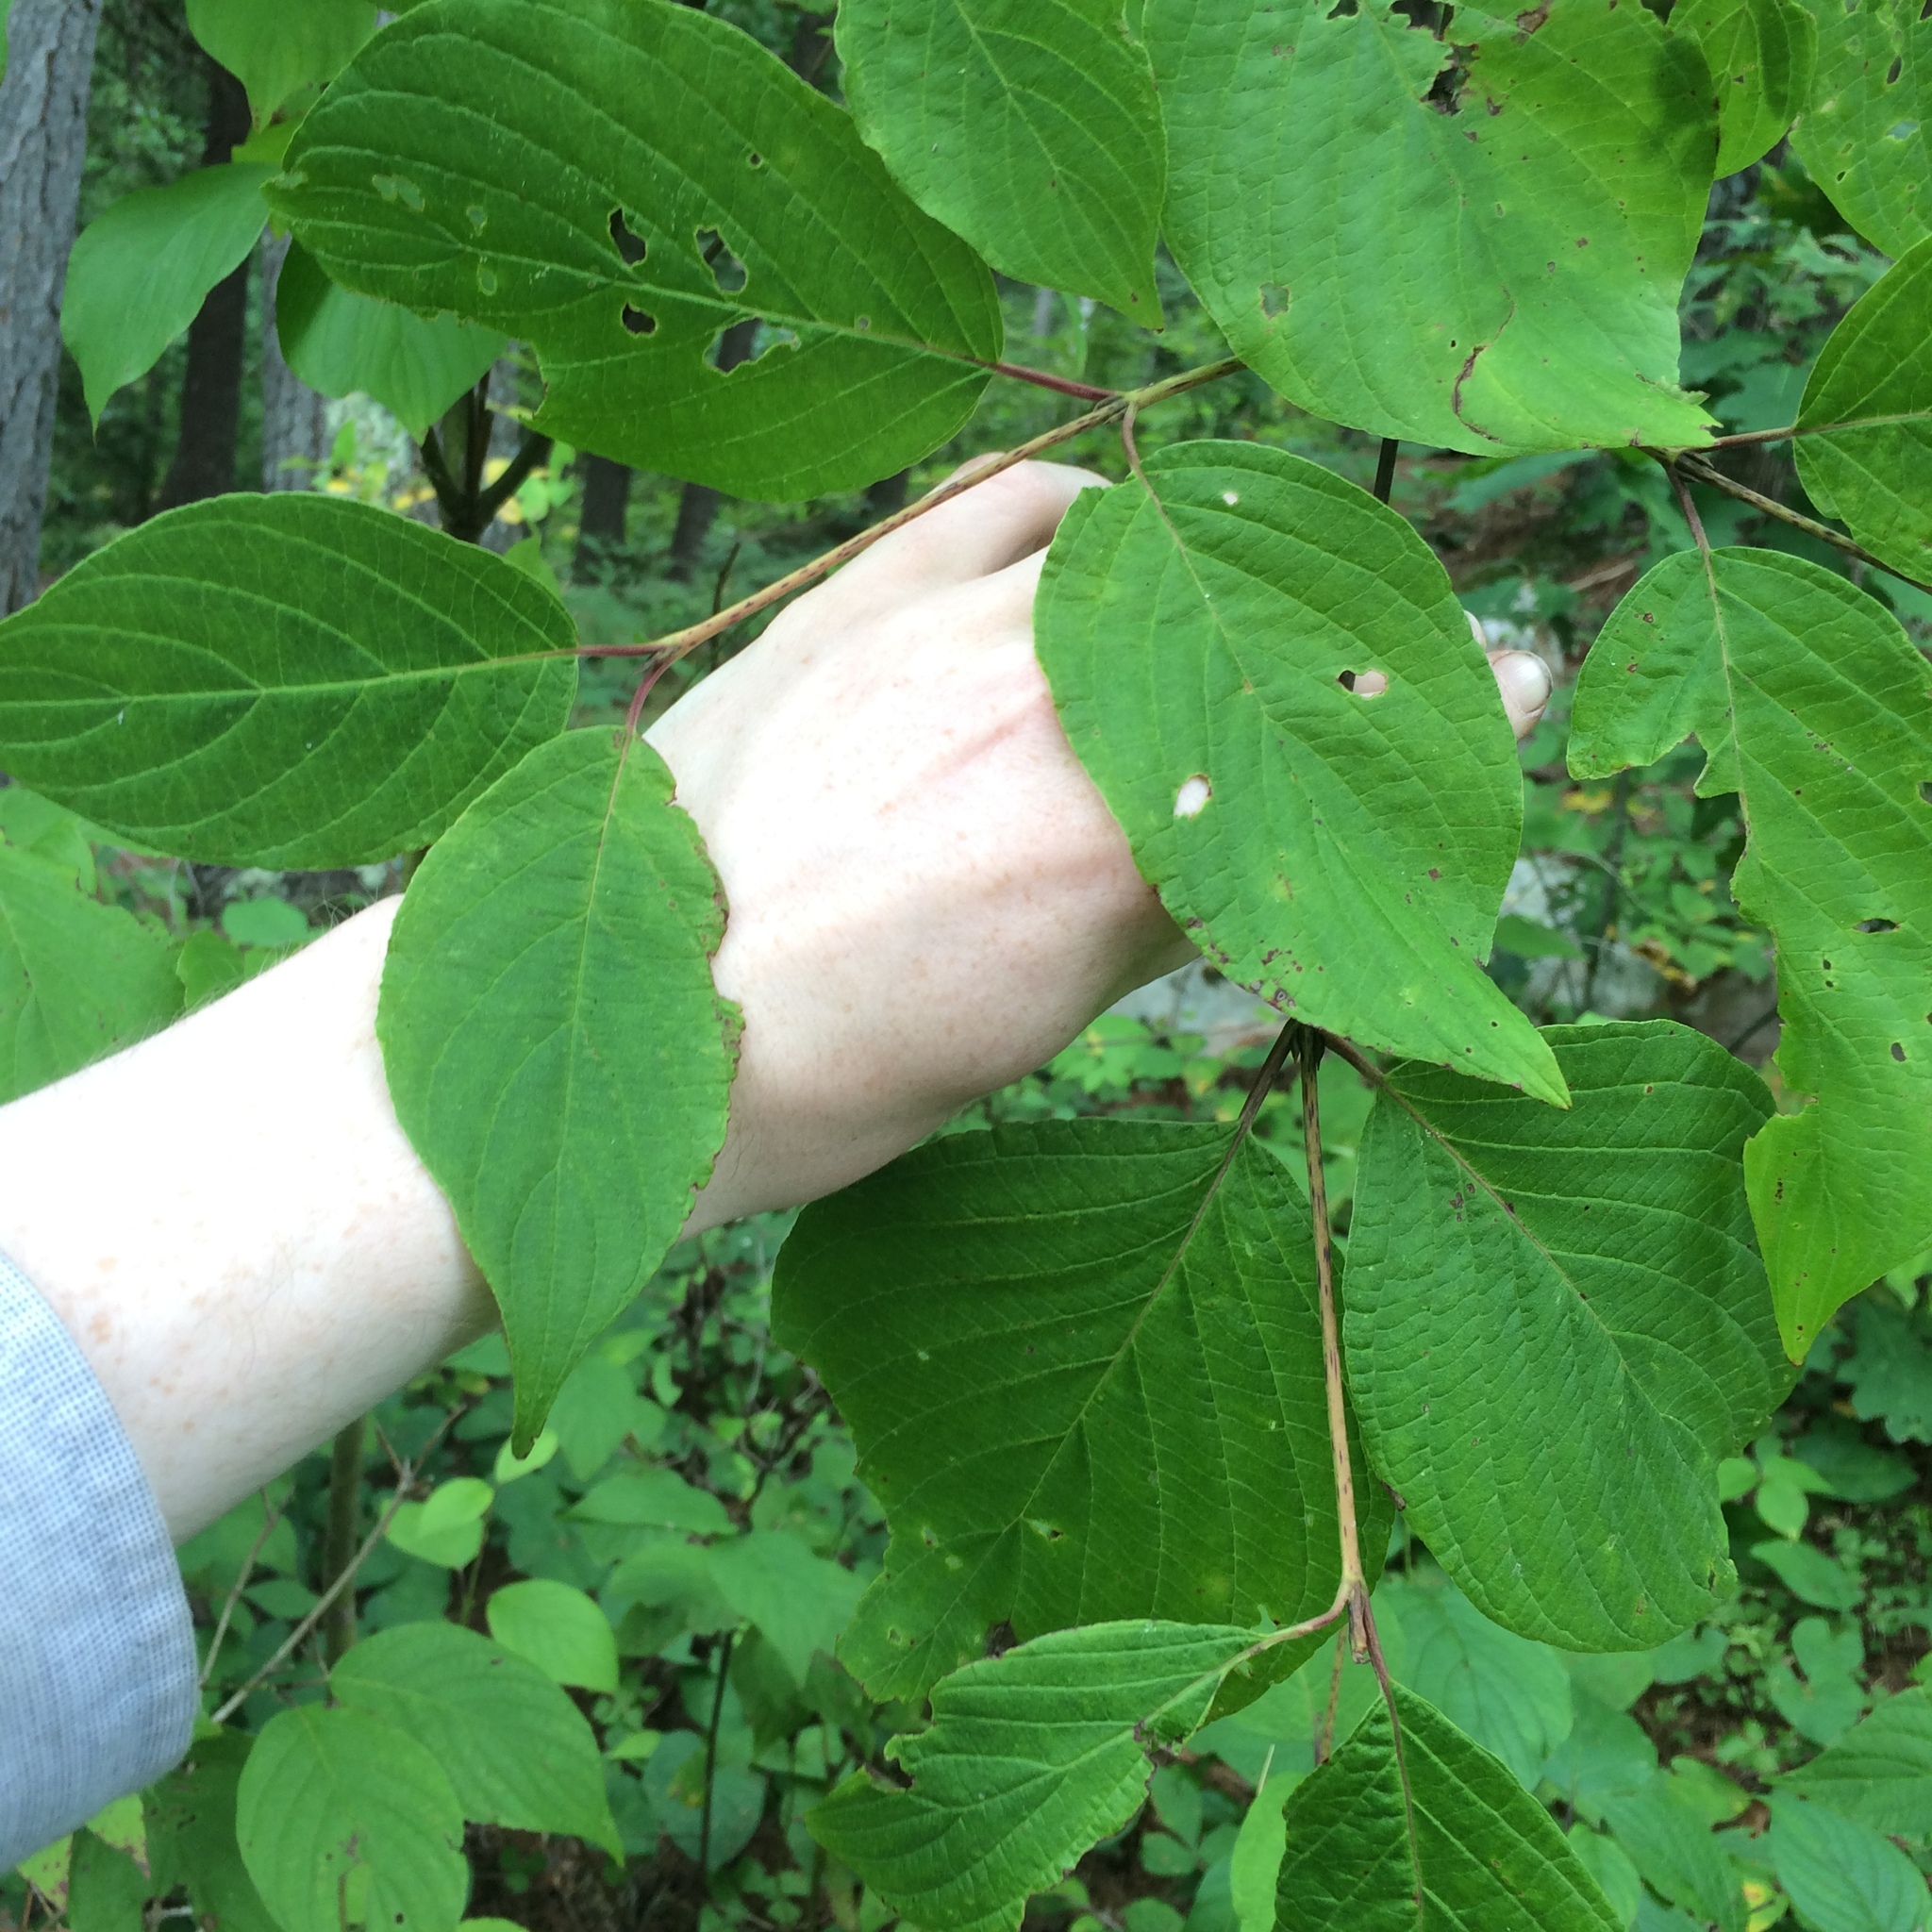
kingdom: Plantae
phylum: Tracheophyta
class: Magnoliopsida
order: Cornales
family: Cornaceae
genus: Cornus
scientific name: Cornus rugosa
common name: Round-leaf dogwood
